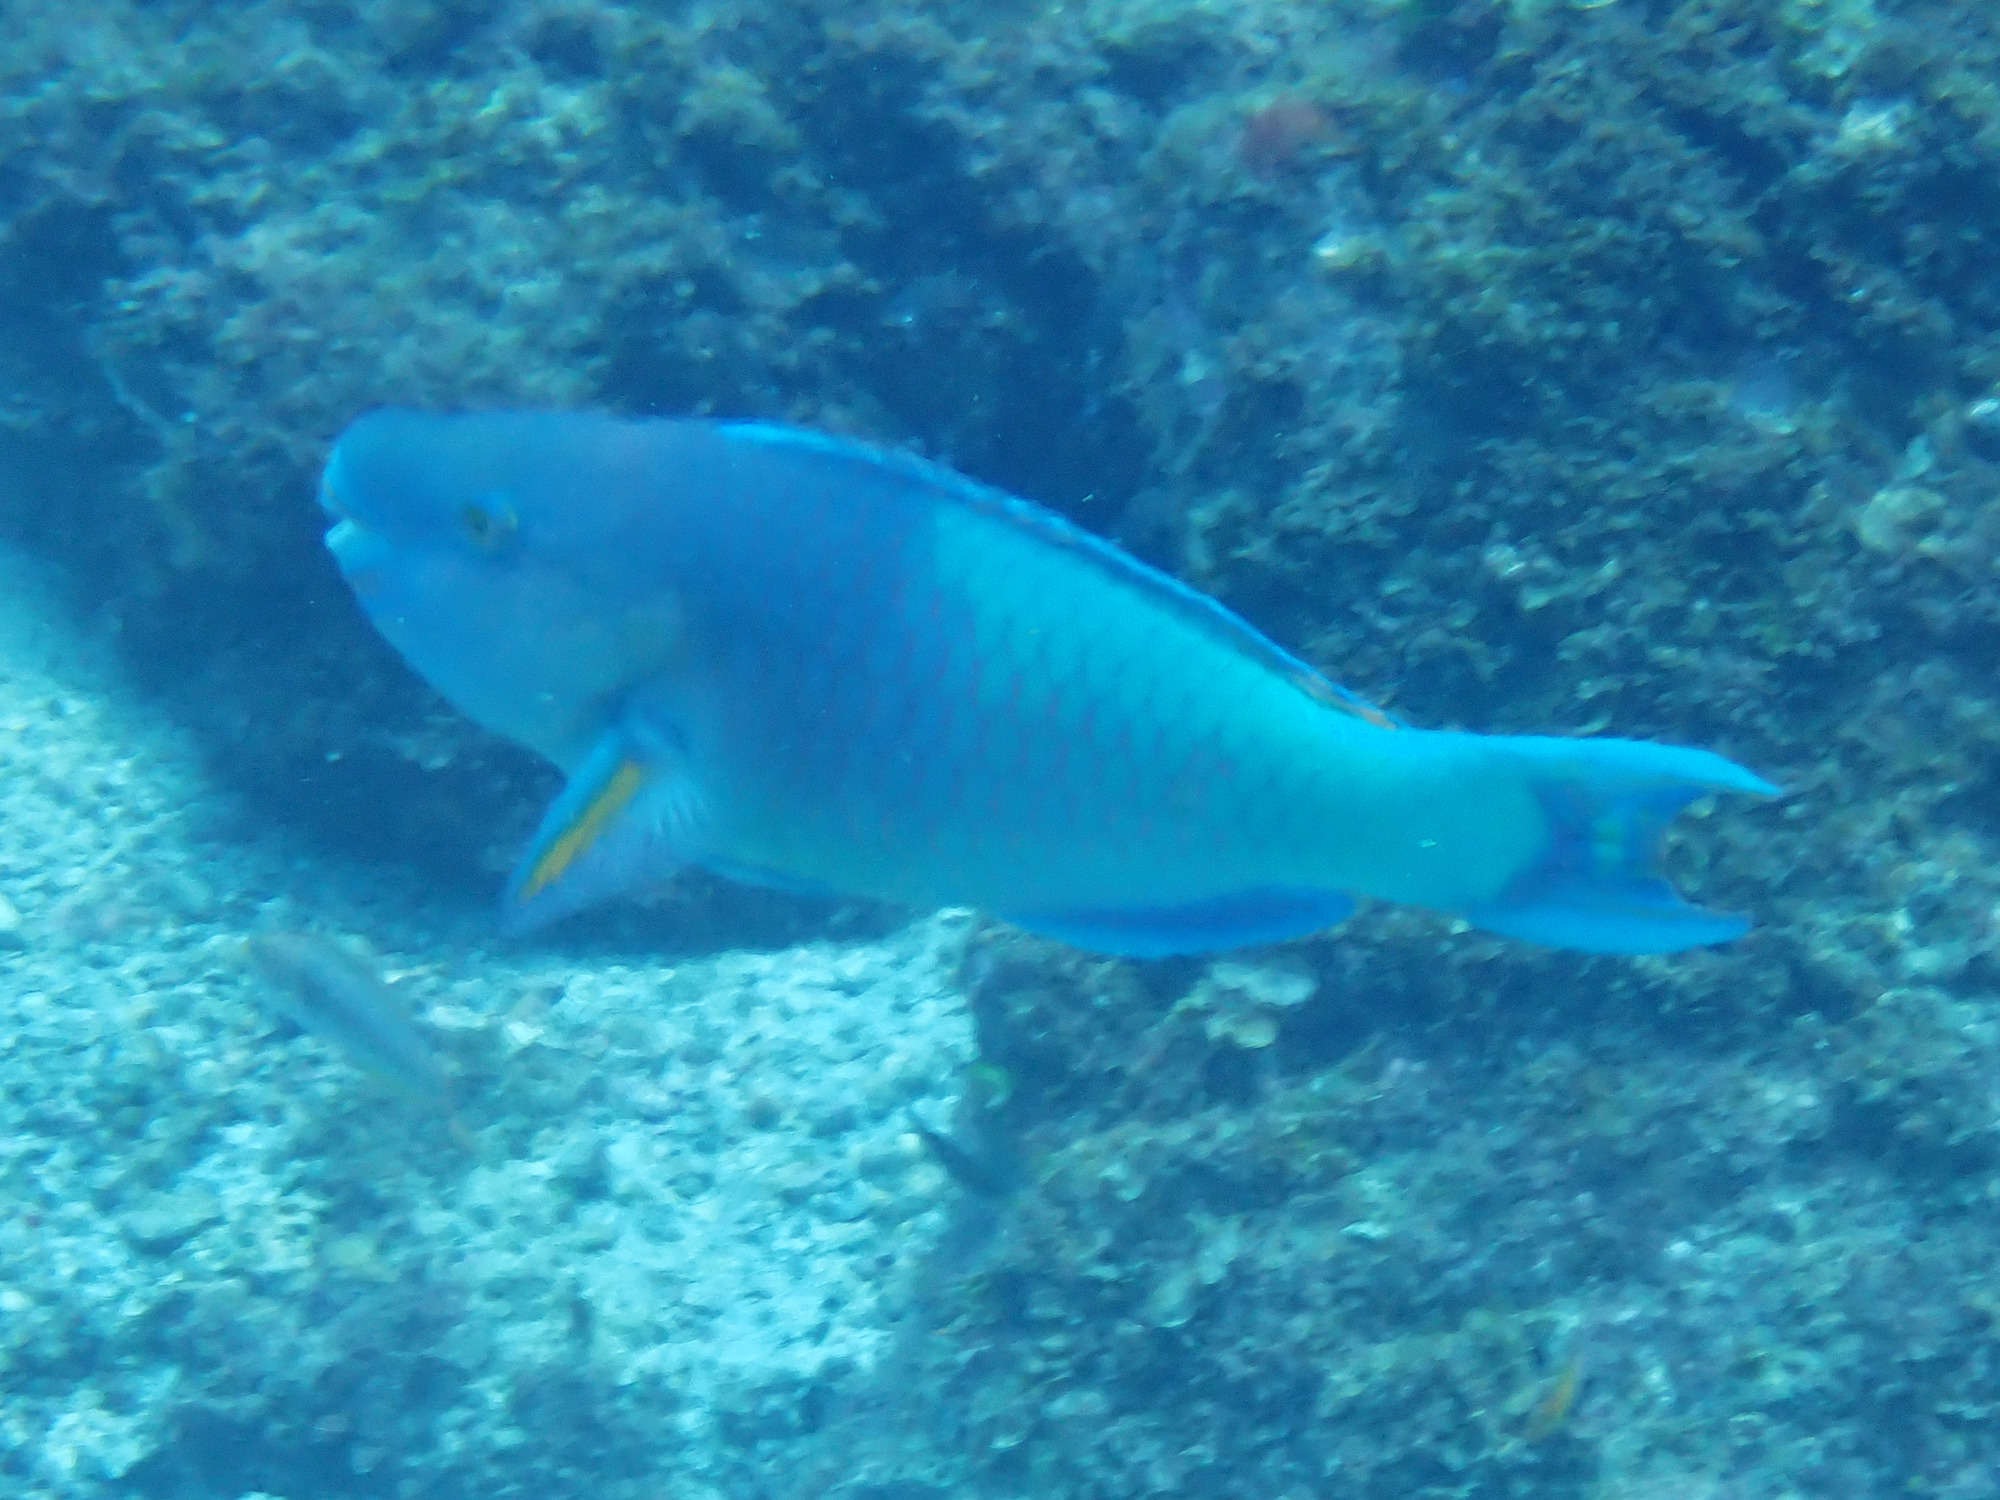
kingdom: Animalia
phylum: Chordata
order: Perciformes
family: Scaridae
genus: Scarus
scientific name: Scarus rubroviolaceus
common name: Ember parrotfish
